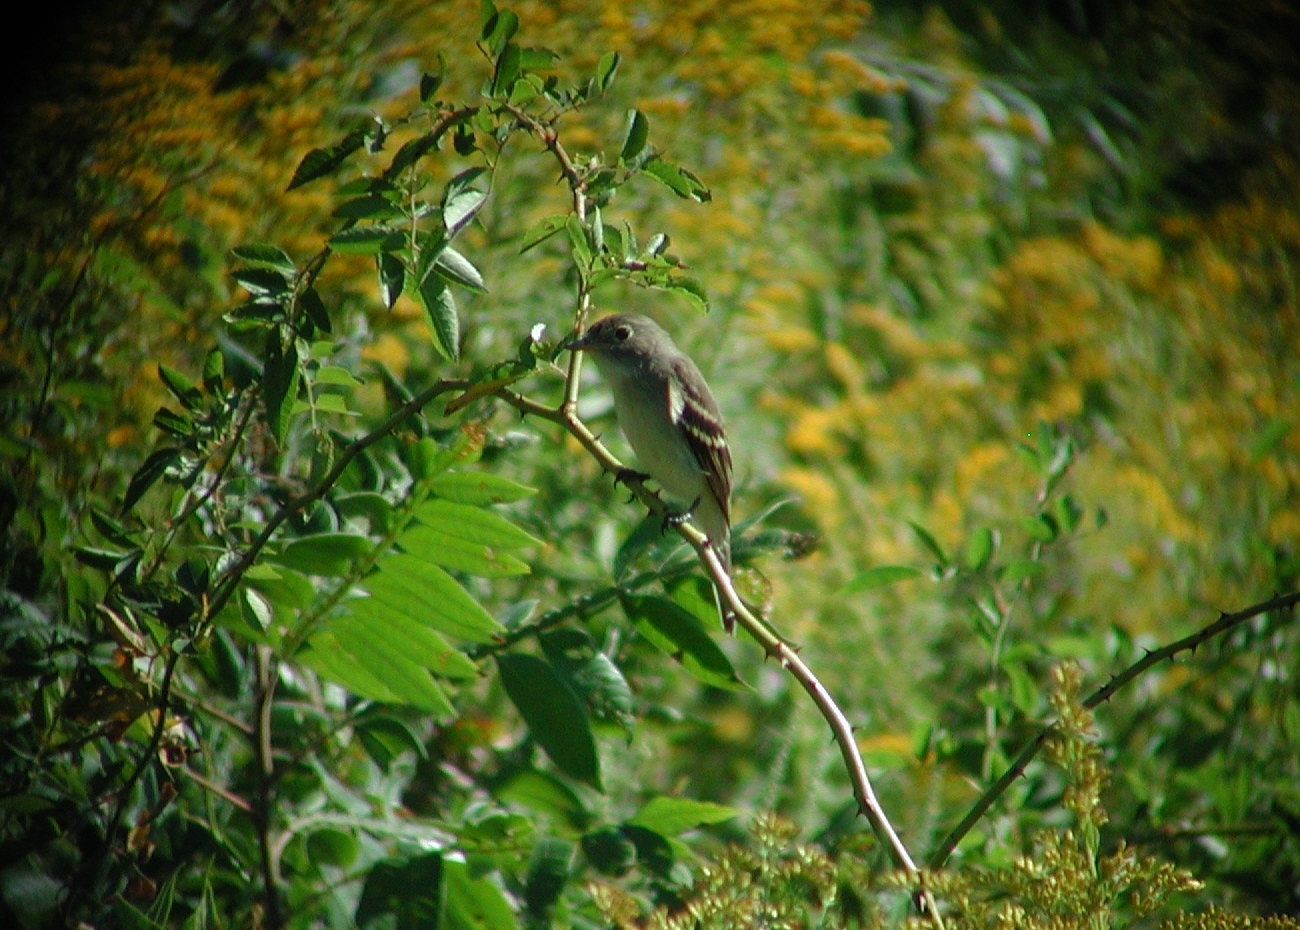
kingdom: Animalia
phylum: Chordata
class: Aves
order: Passeriformes
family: Tyrannidae
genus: Empidonax
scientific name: Empidonax minimus
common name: Least flycatcher
